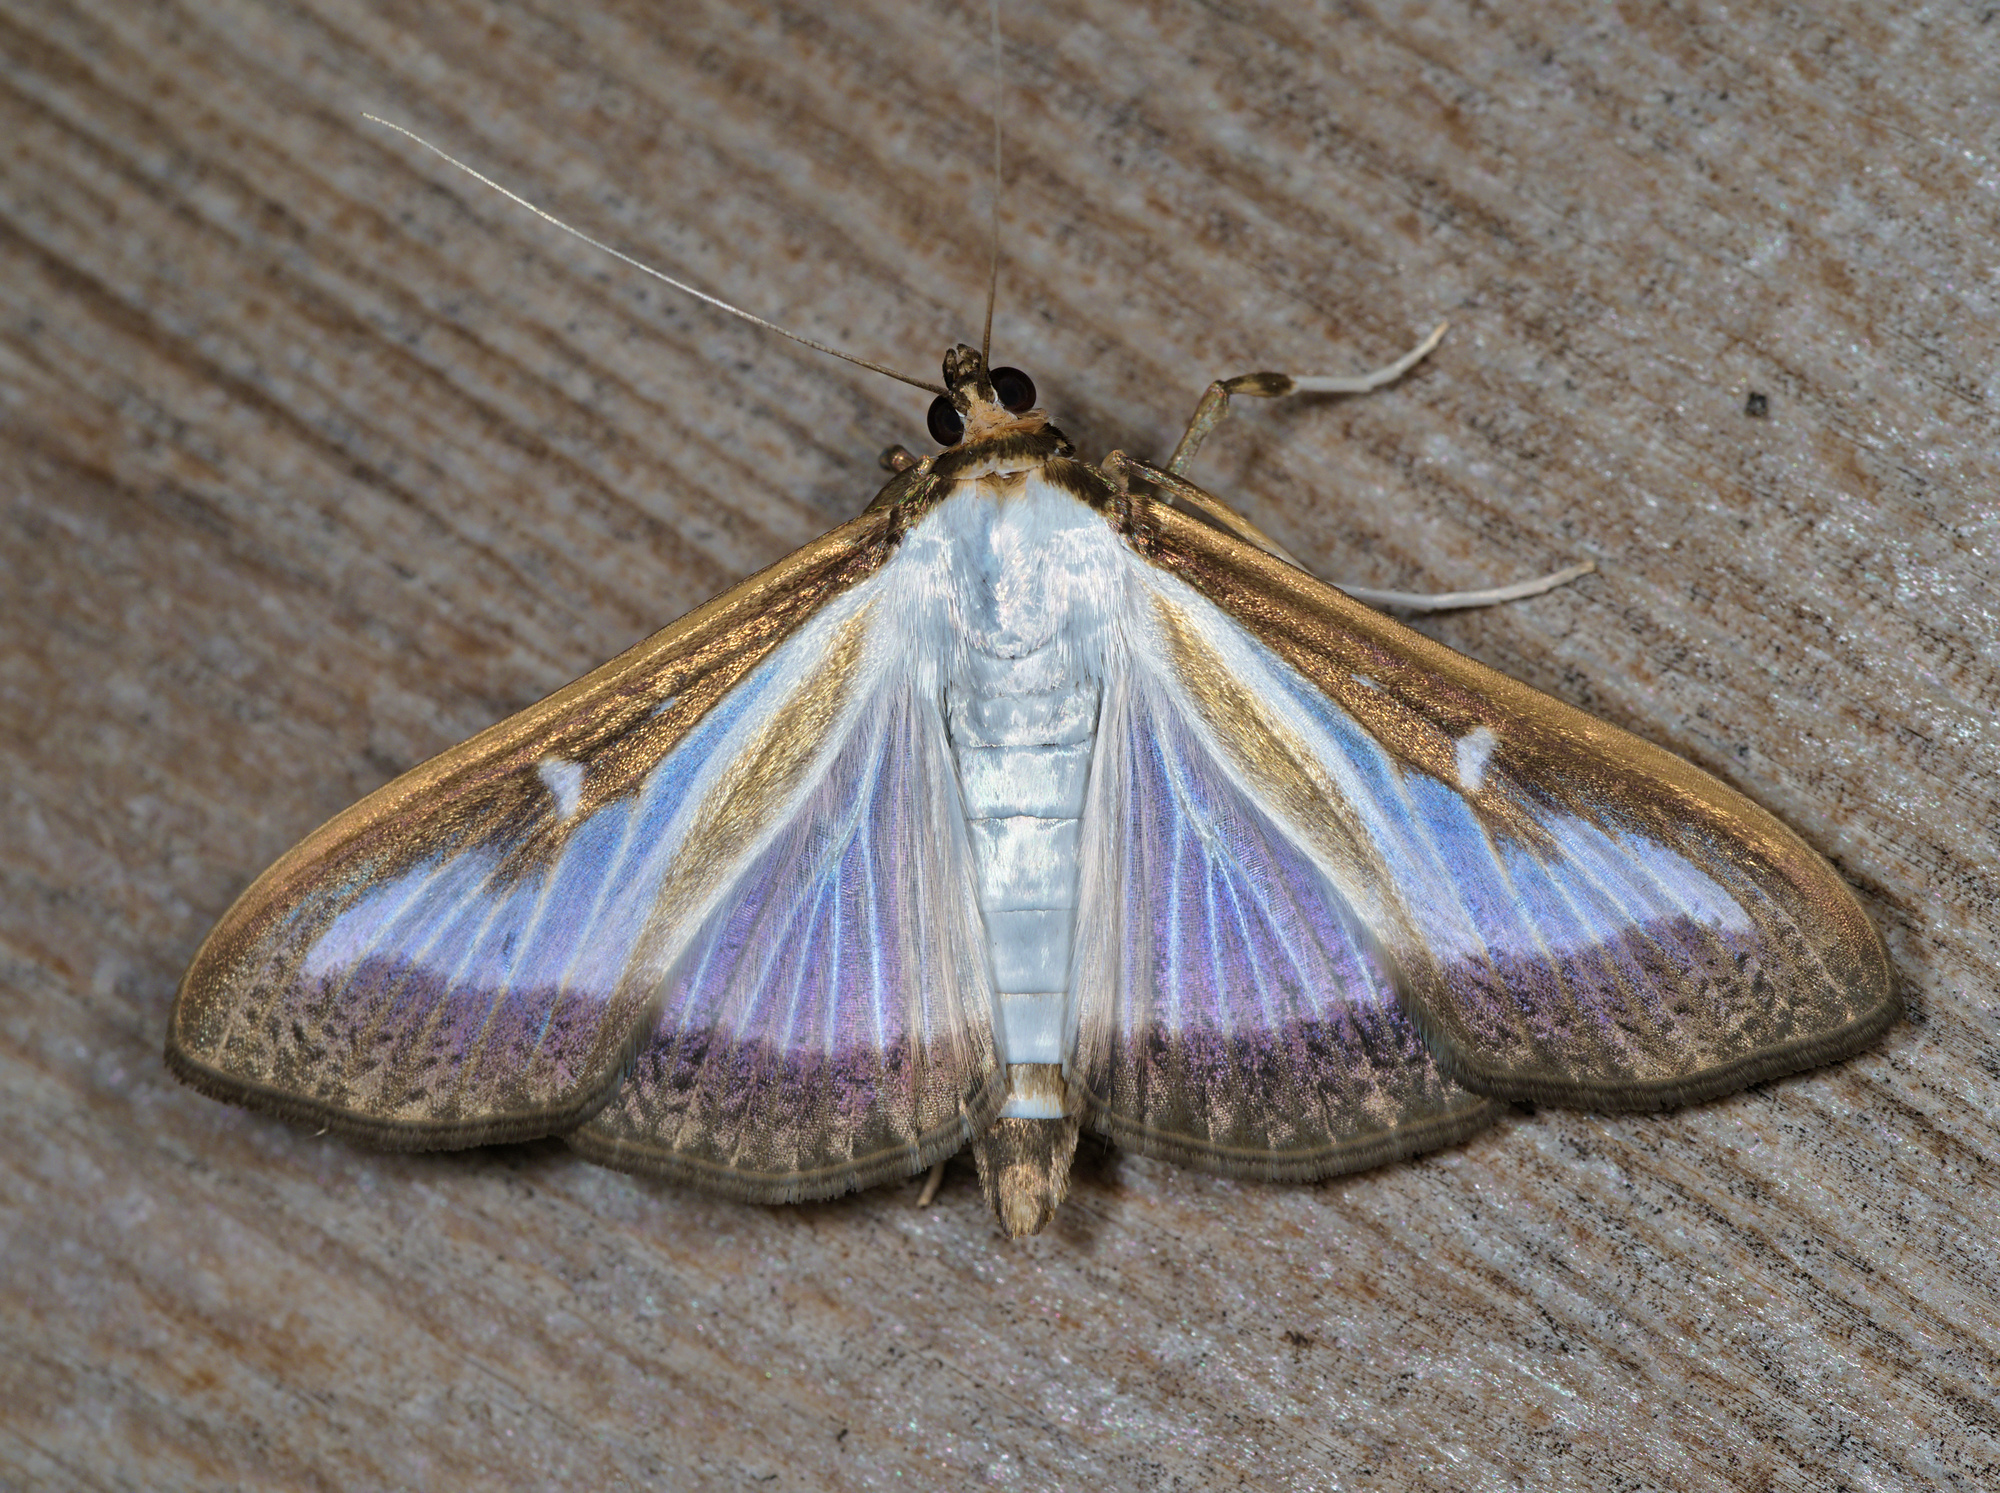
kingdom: Animalia
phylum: Arthropoda
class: Insecta
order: Lepidoptera
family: Crambidae
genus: Cydalima
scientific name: Cydalima perspectalis
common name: Box tree moth
